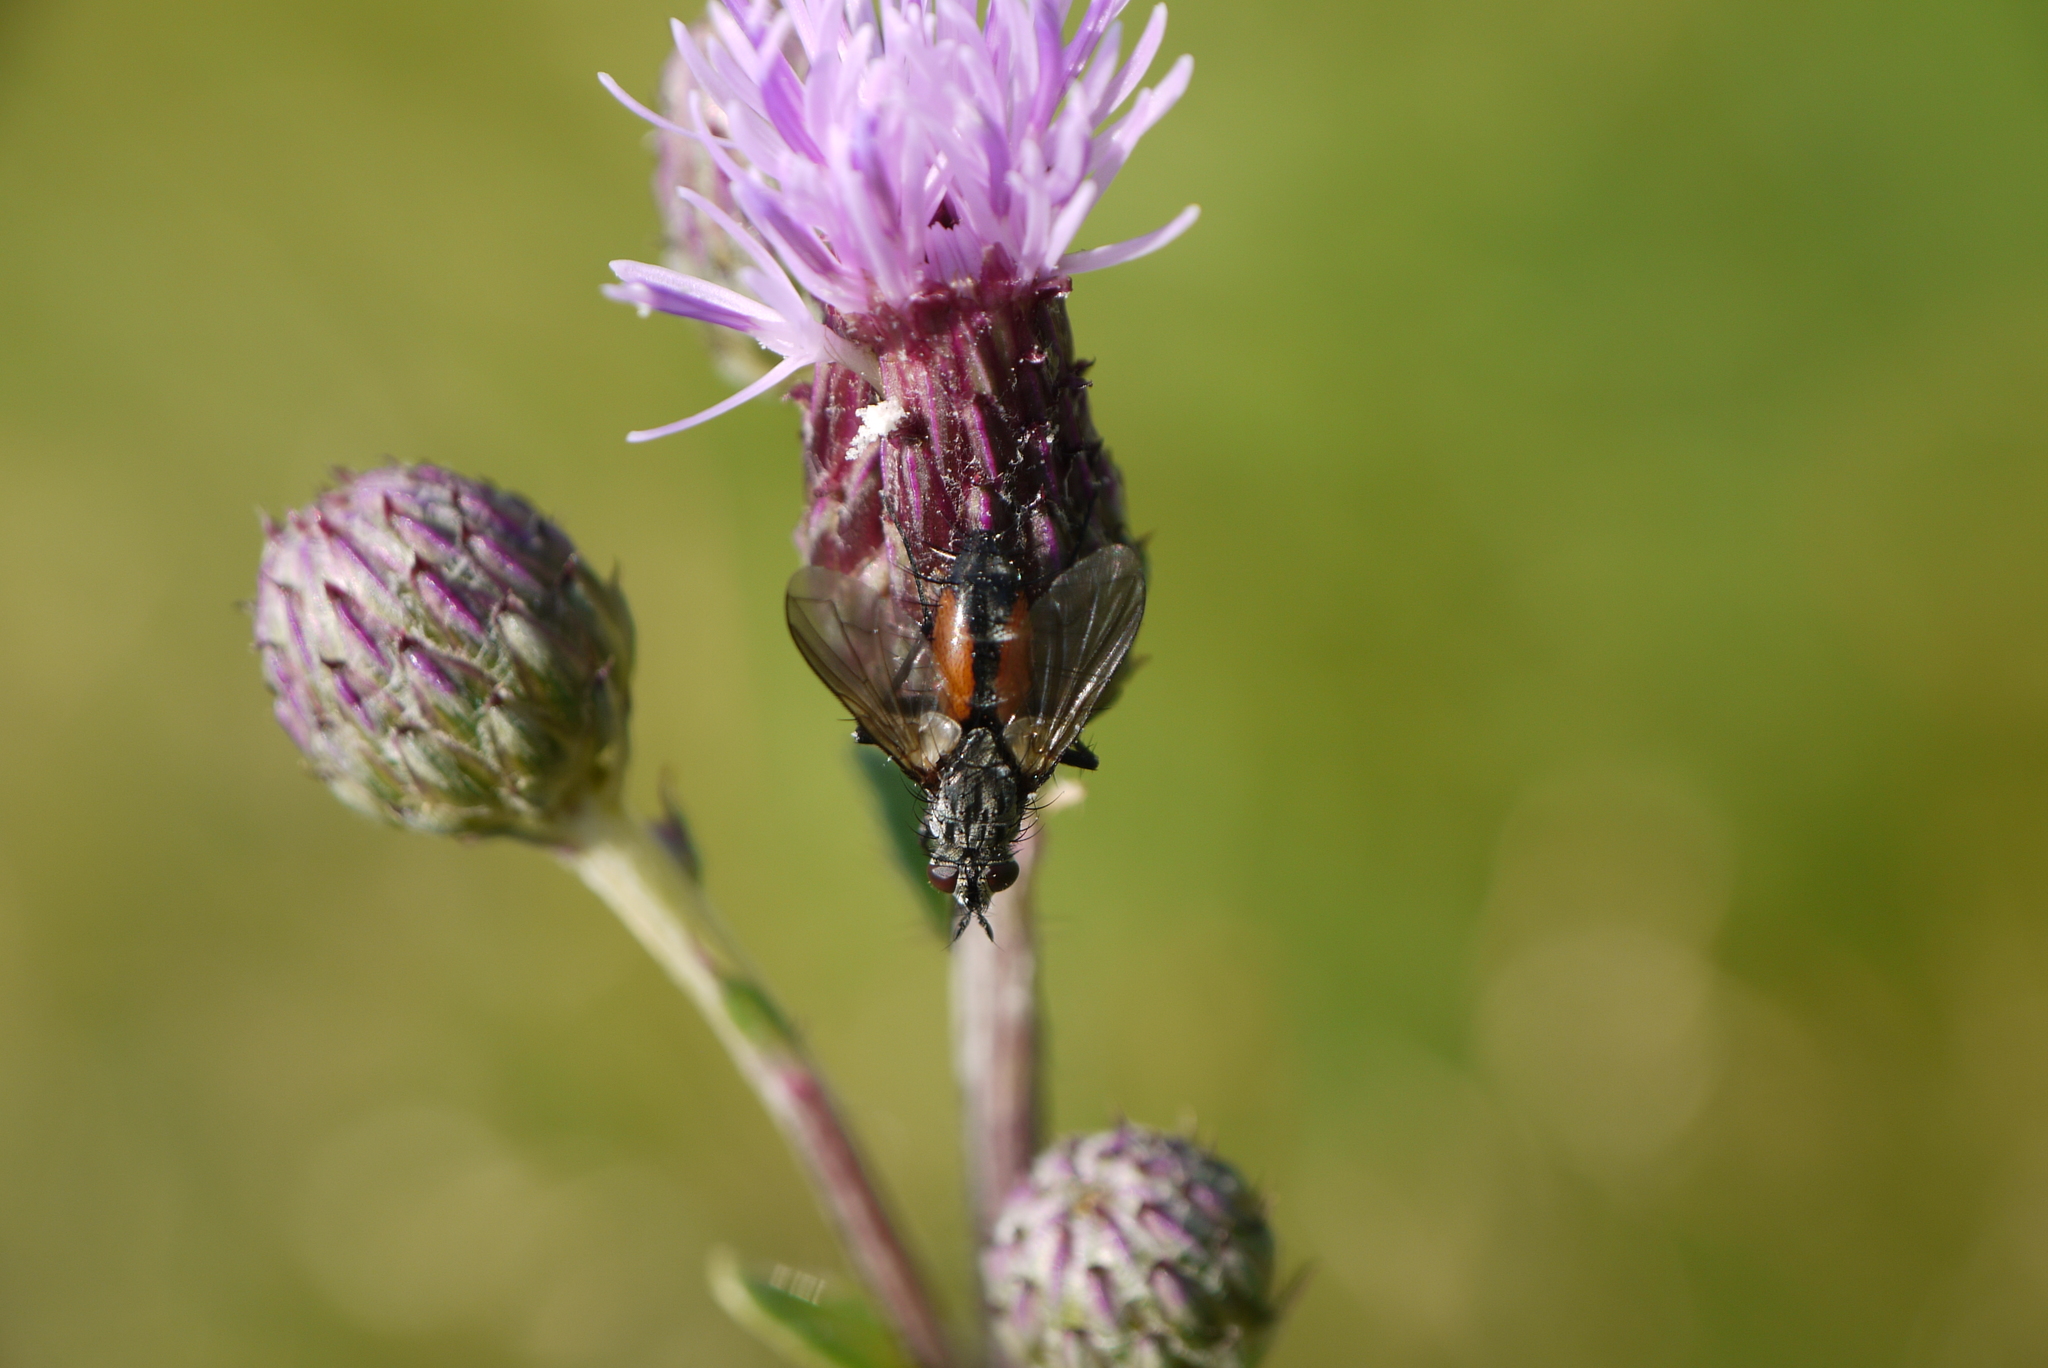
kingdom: Animalia
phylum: Arthropoda
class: Insecta
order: Diptera
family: Tachinidae
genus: Eriothrix
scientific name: Eriothrix rufomaculatus
